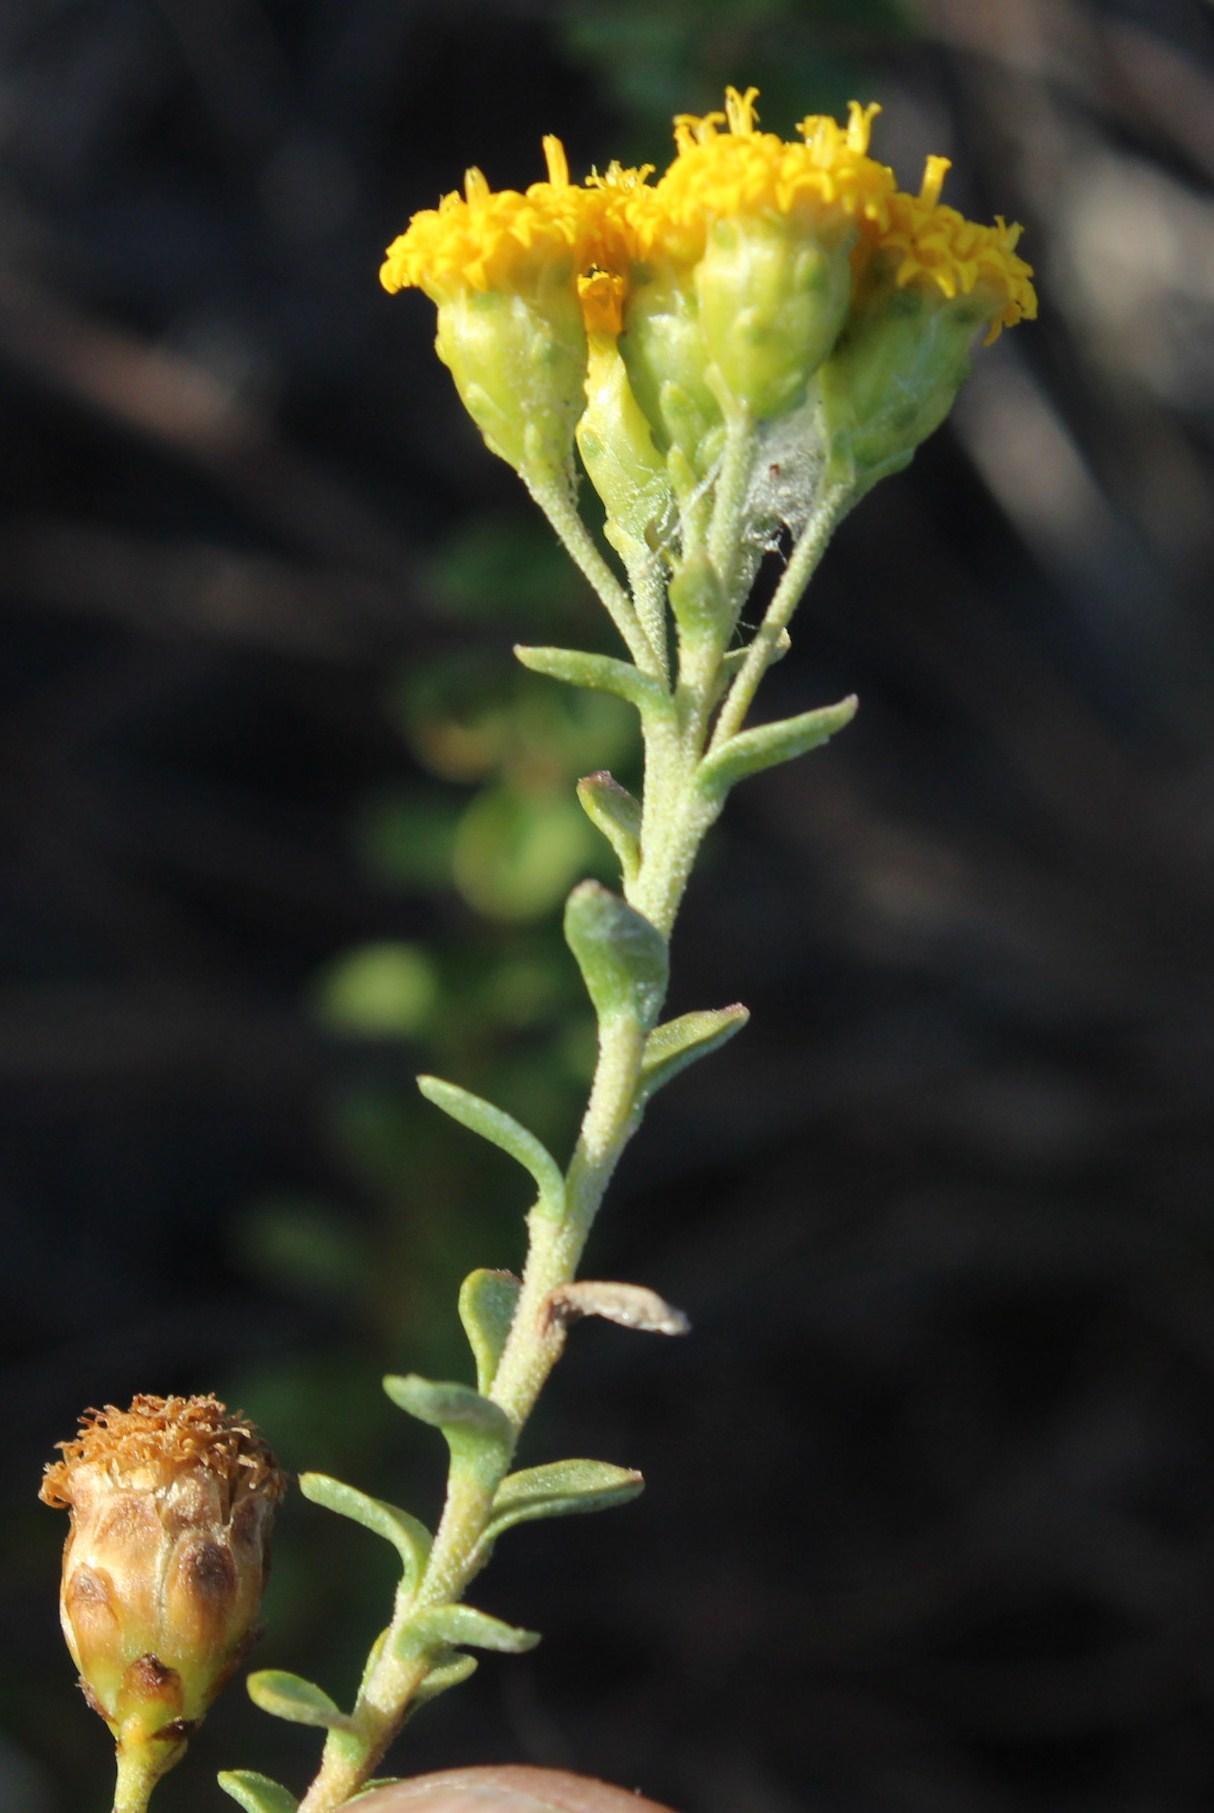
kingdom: Plantae
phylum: Tracheophyta
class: Magnoliopsida
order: Asterales
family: Asteraceae
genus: Athanasia
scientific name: Athanasia dentata
